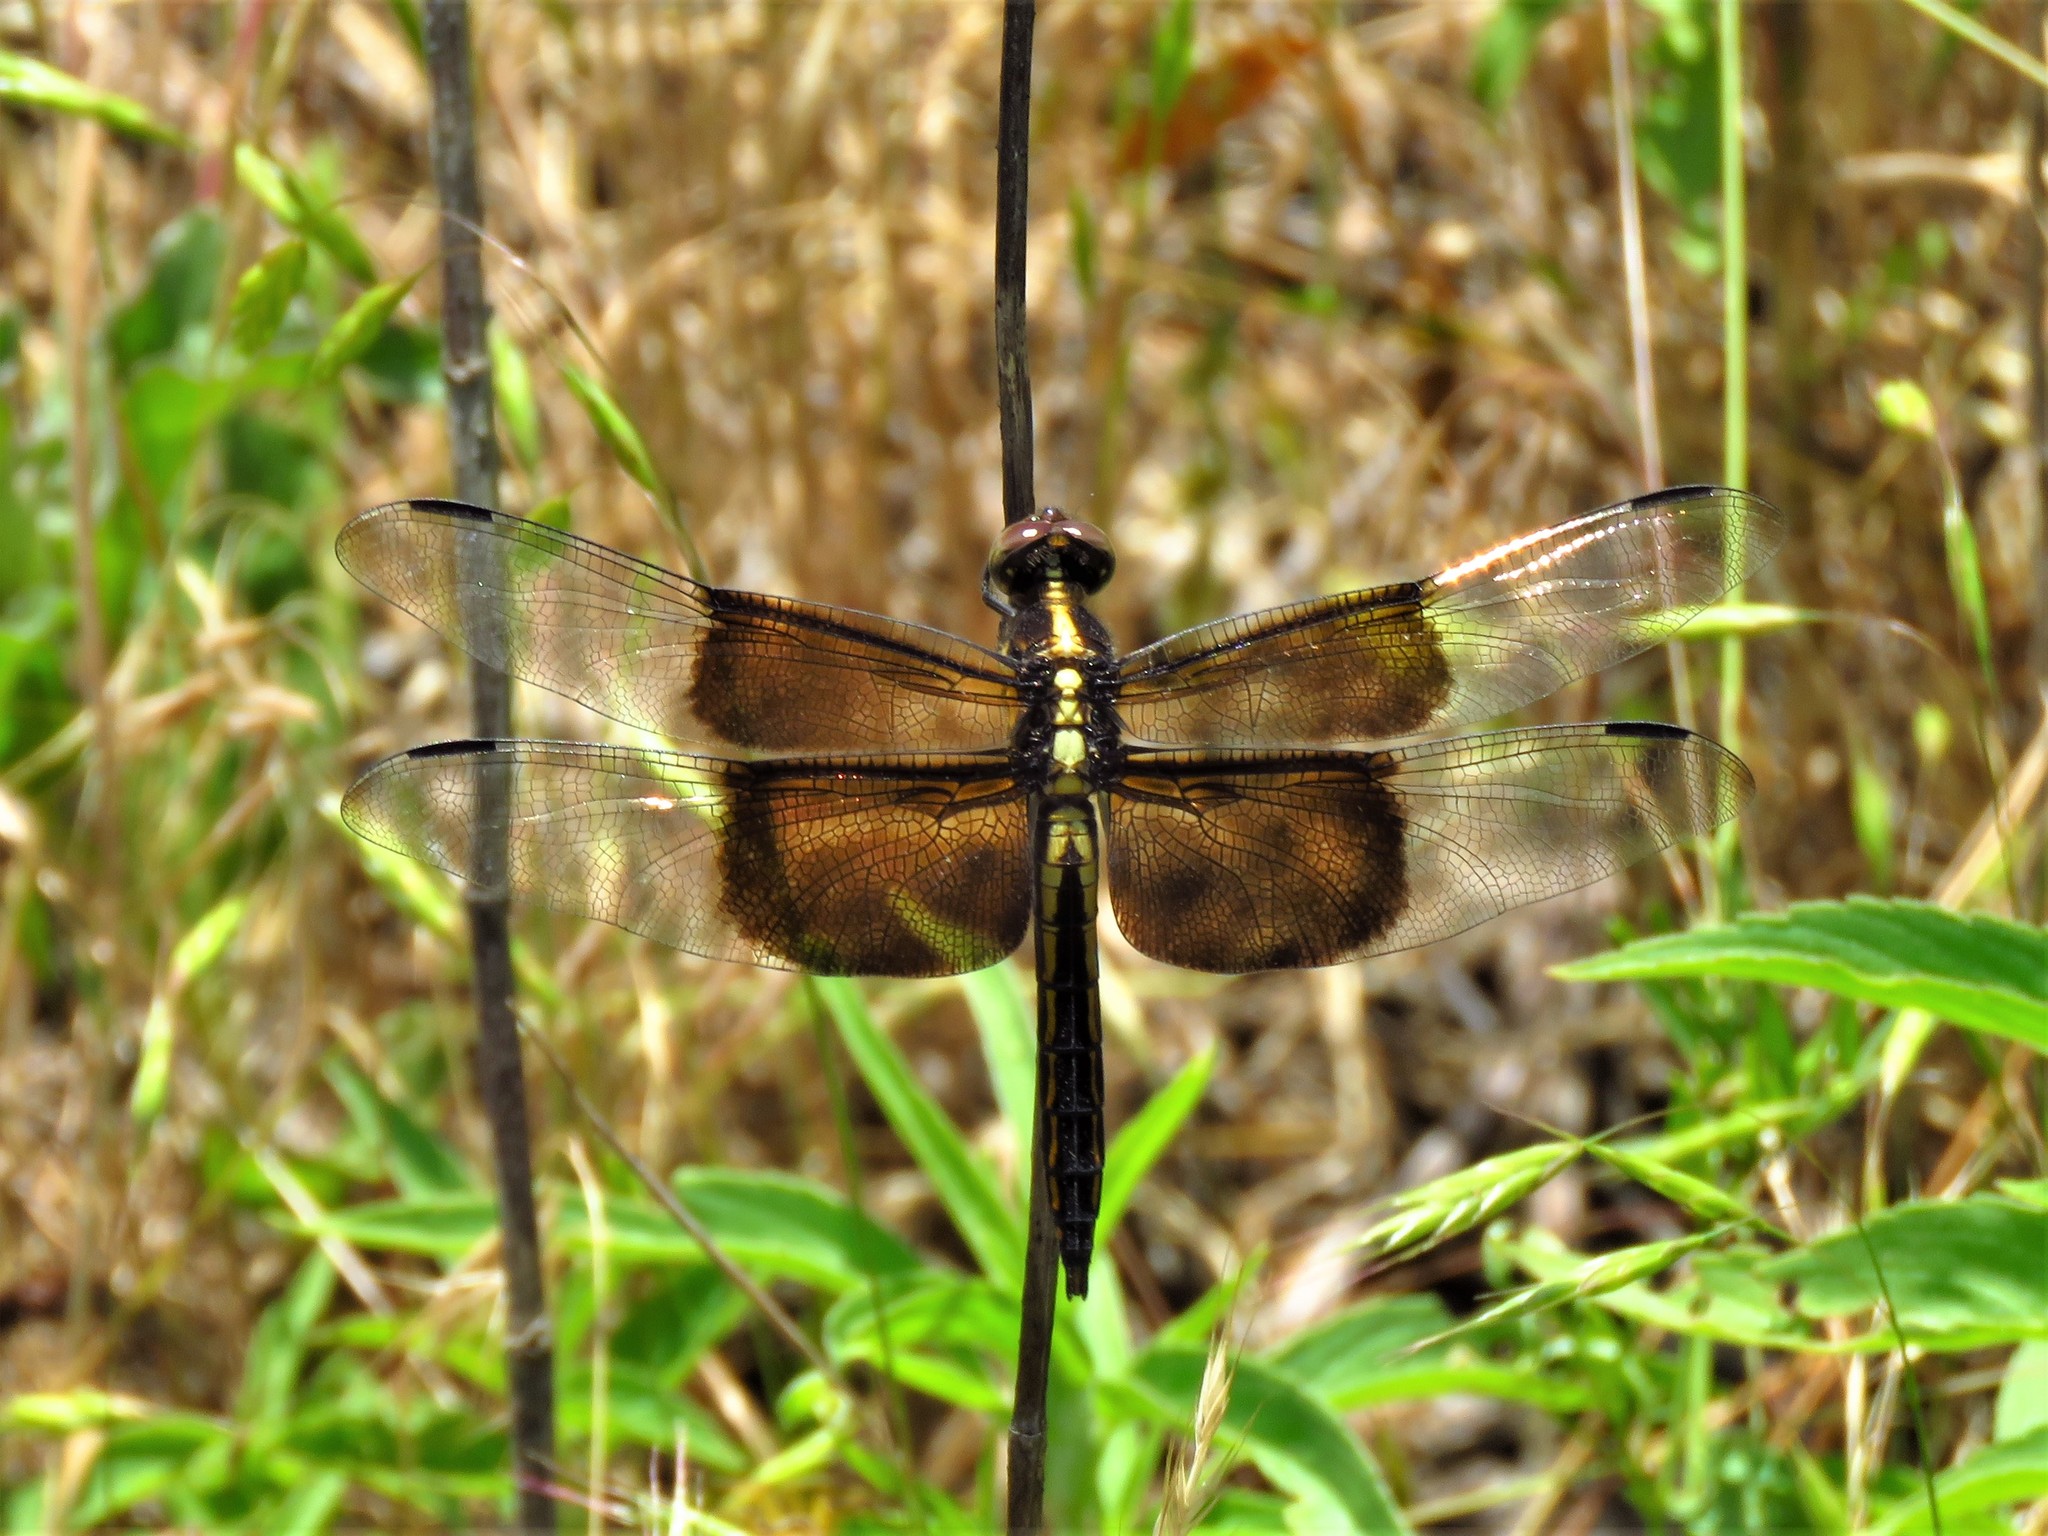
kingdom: Animalia
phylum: Arthropoda
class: Insecta
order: Odonata
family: Libellulidae
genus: Libellula
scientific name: Libellula luctuosa
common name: Widow skimmer
